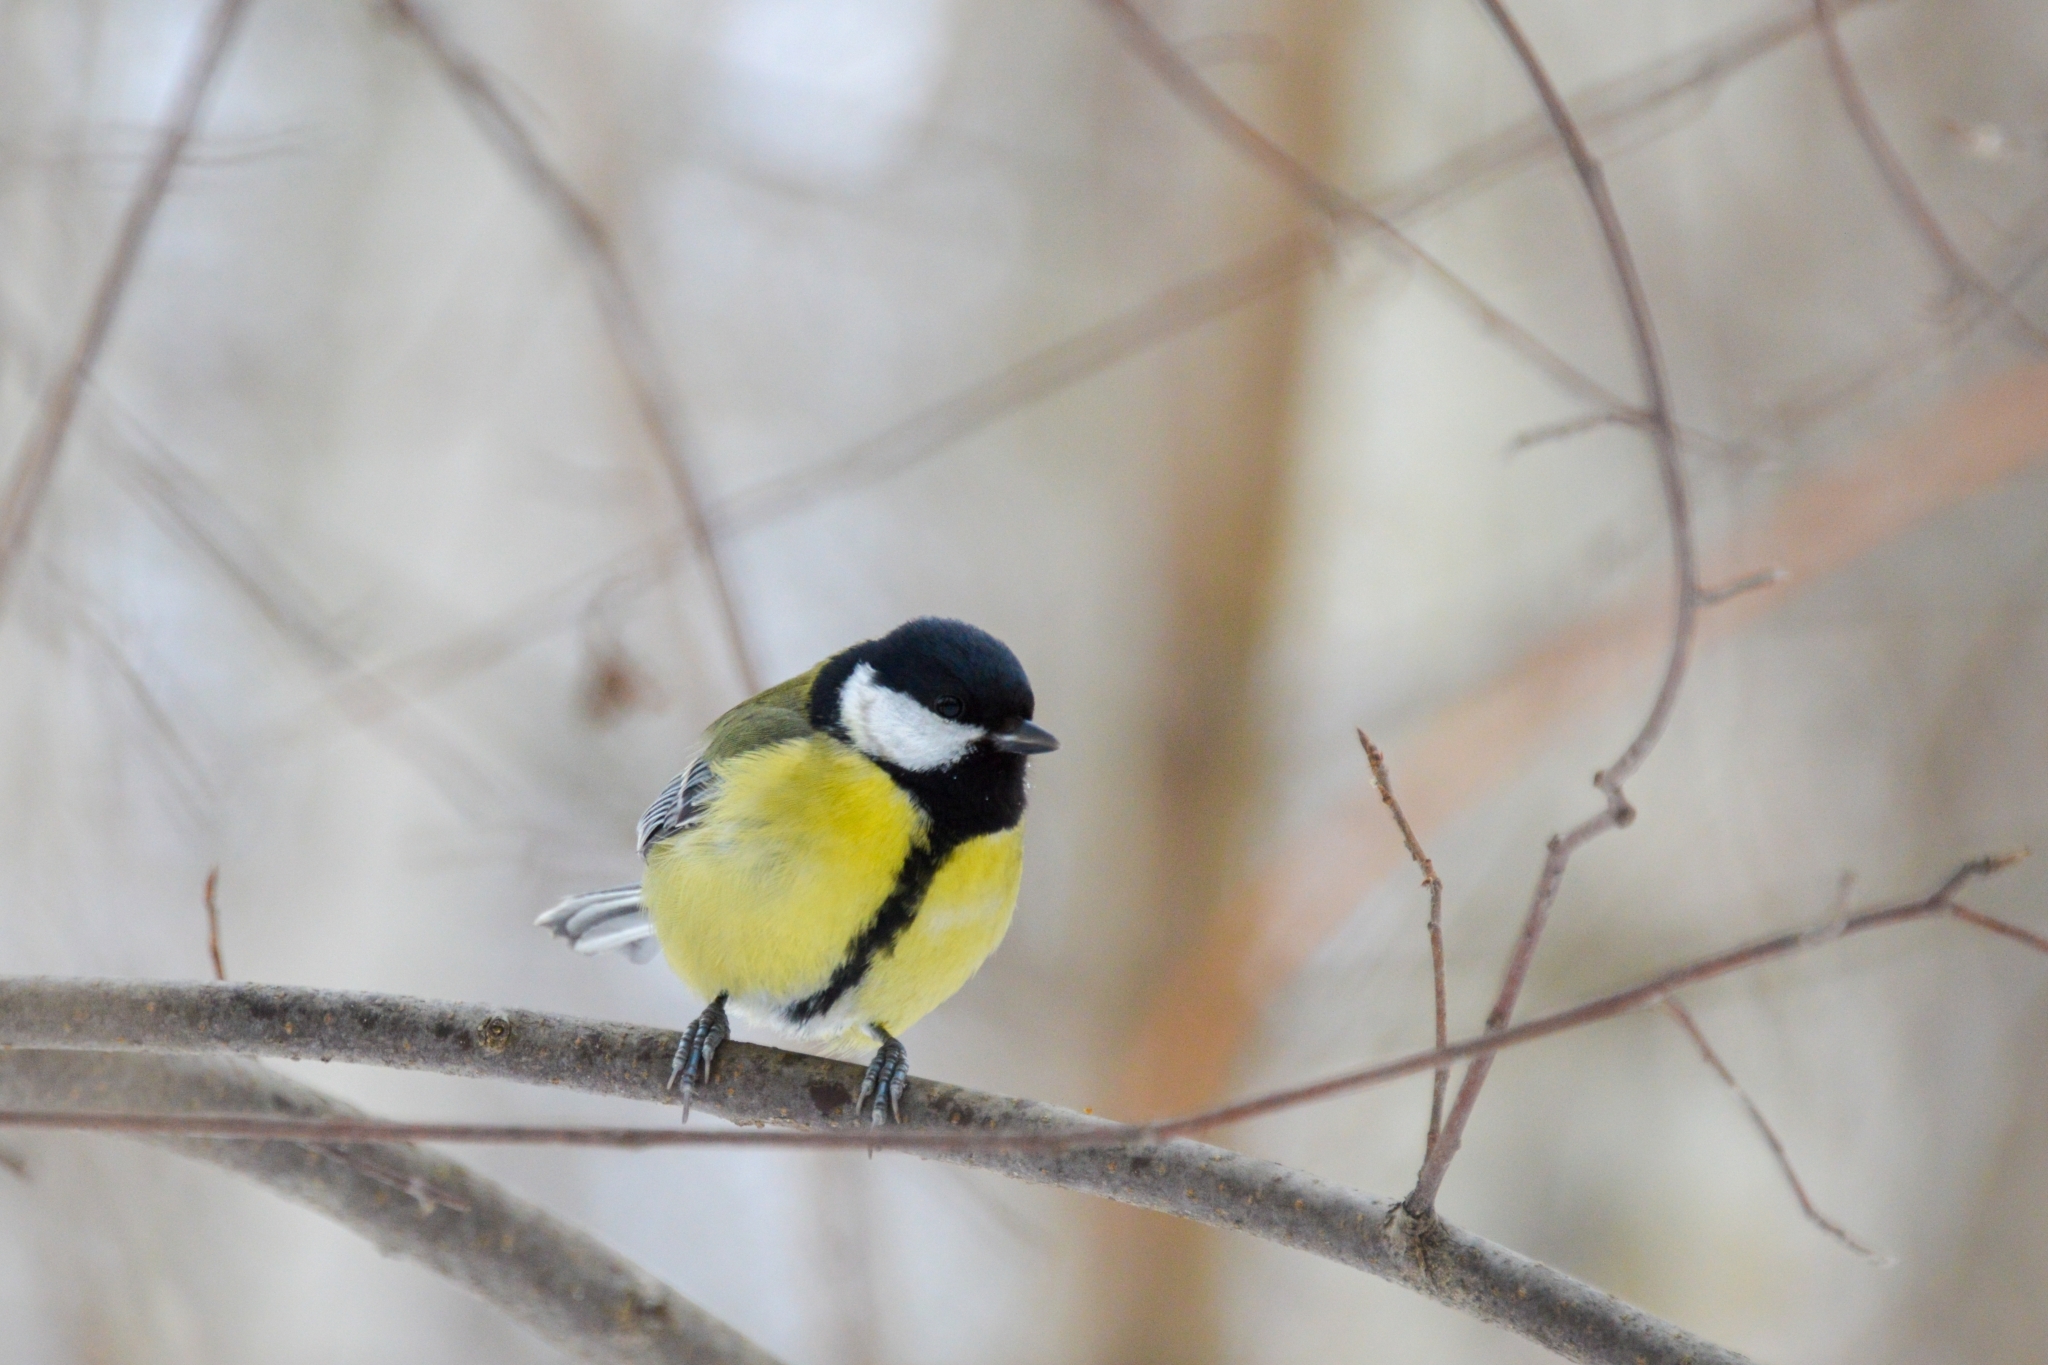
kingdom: Animalia
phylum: Chordata
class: Aves
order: Passeriformes
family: Paridae
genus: Parus
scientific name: Parus major
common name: Great tit
